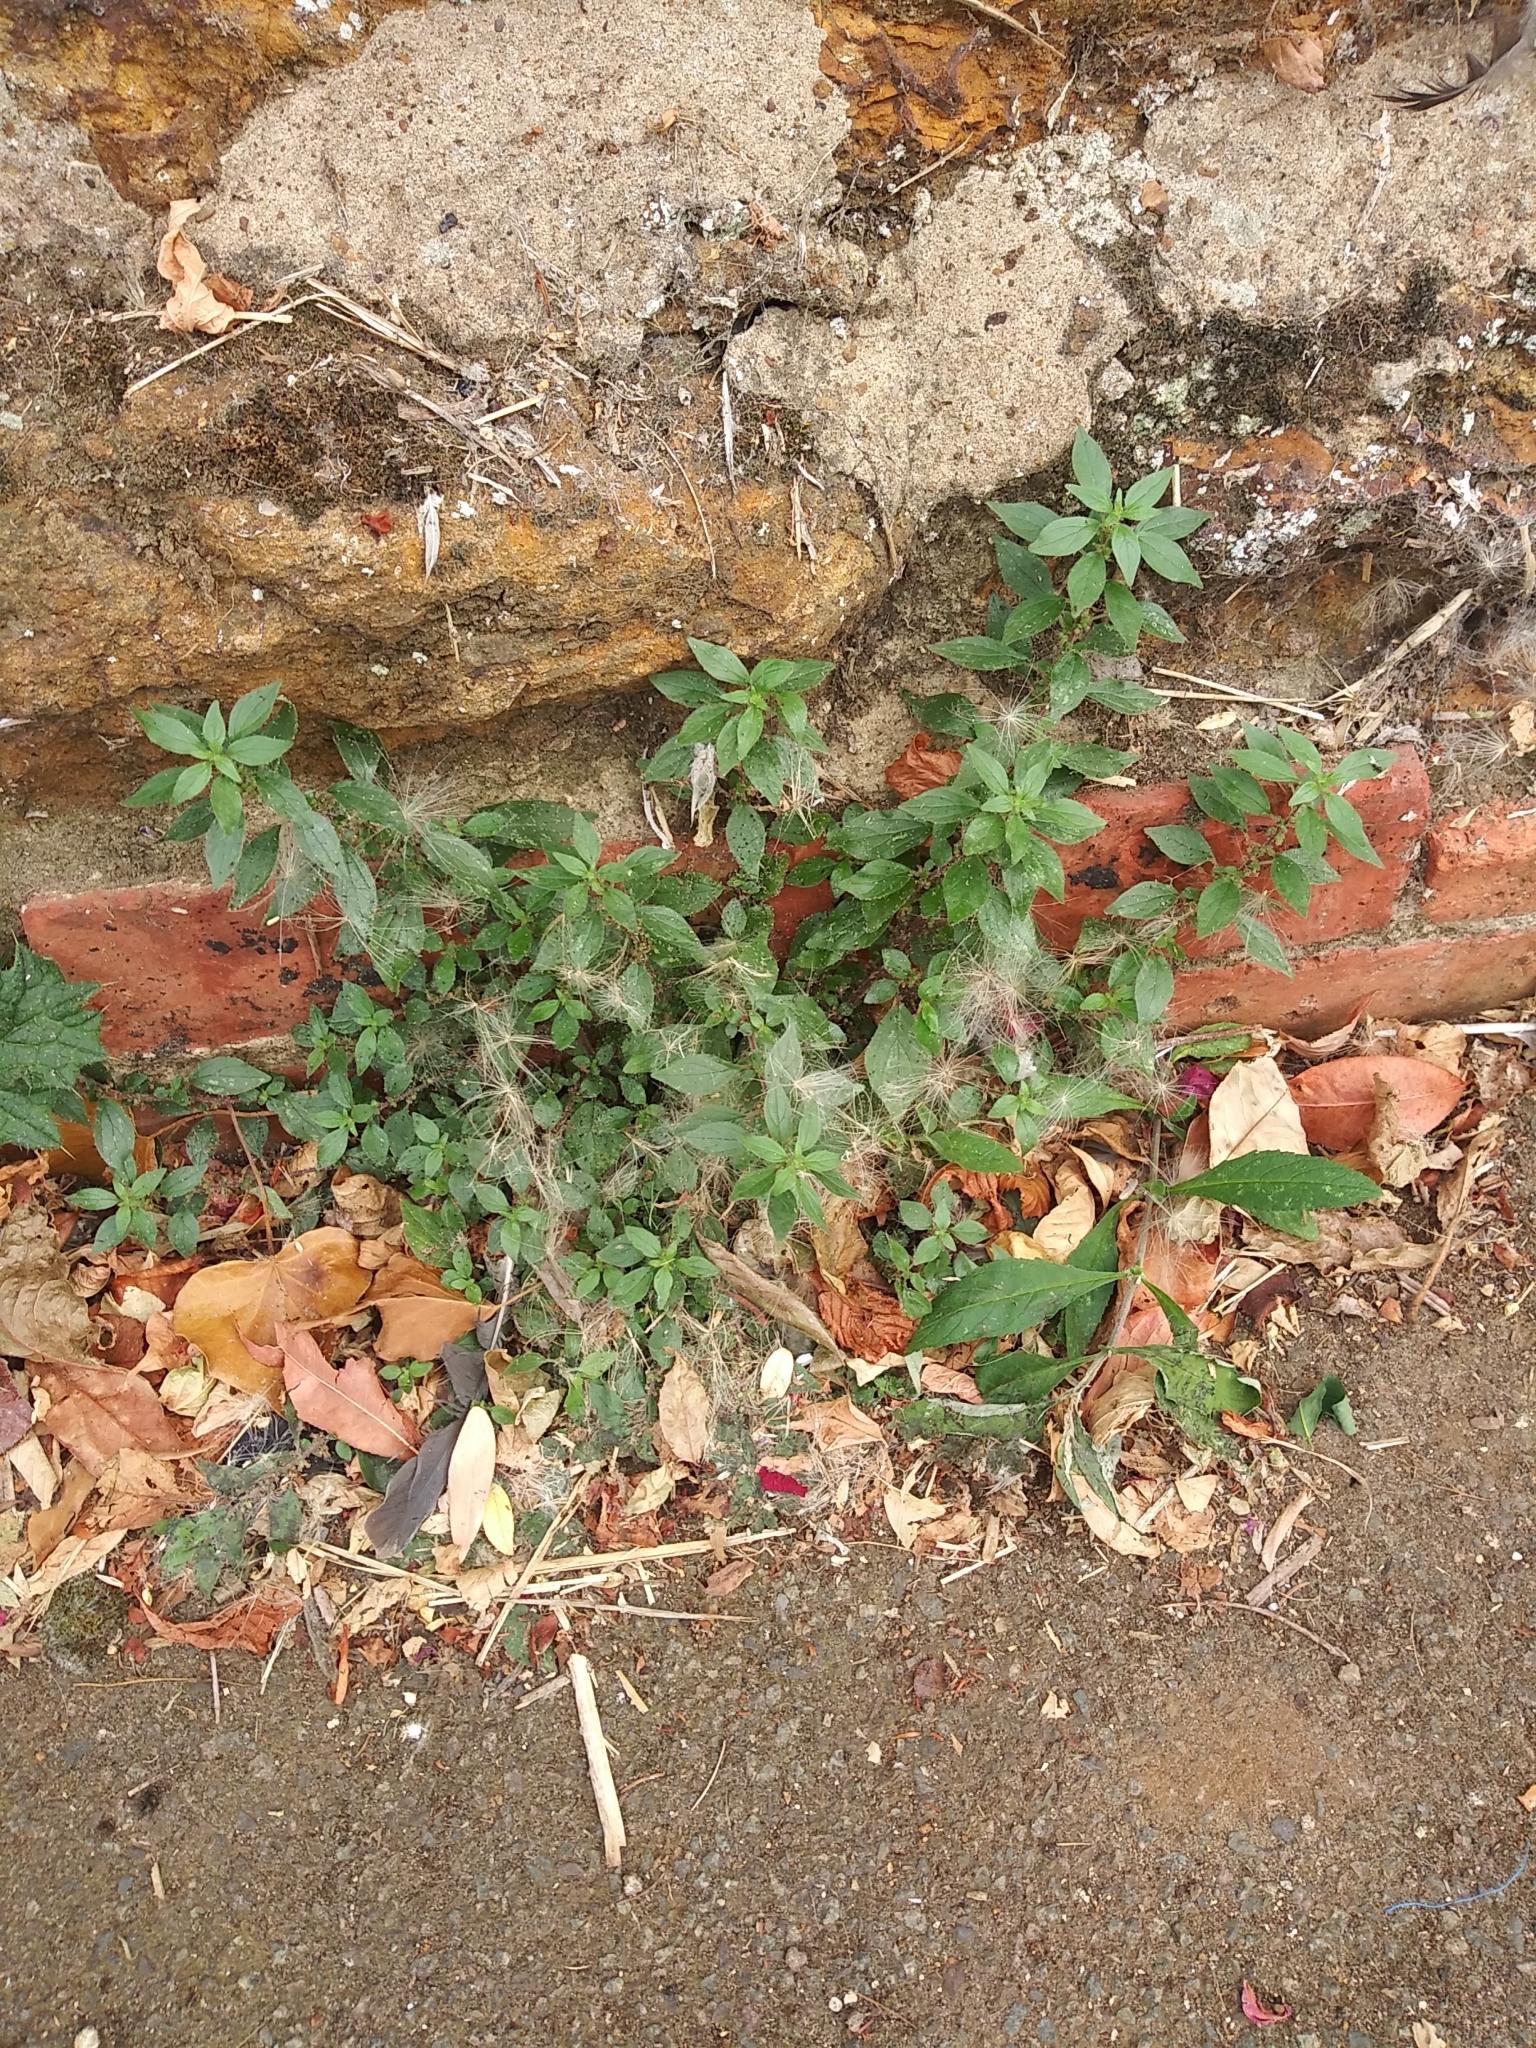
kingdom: Plantae
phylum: Tracheophyta
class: Magnoliopsida
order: Rosales
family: Urticaceae
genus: Parietaria
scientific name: Parietaria judaica
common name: Pellitory-of-the-wall
